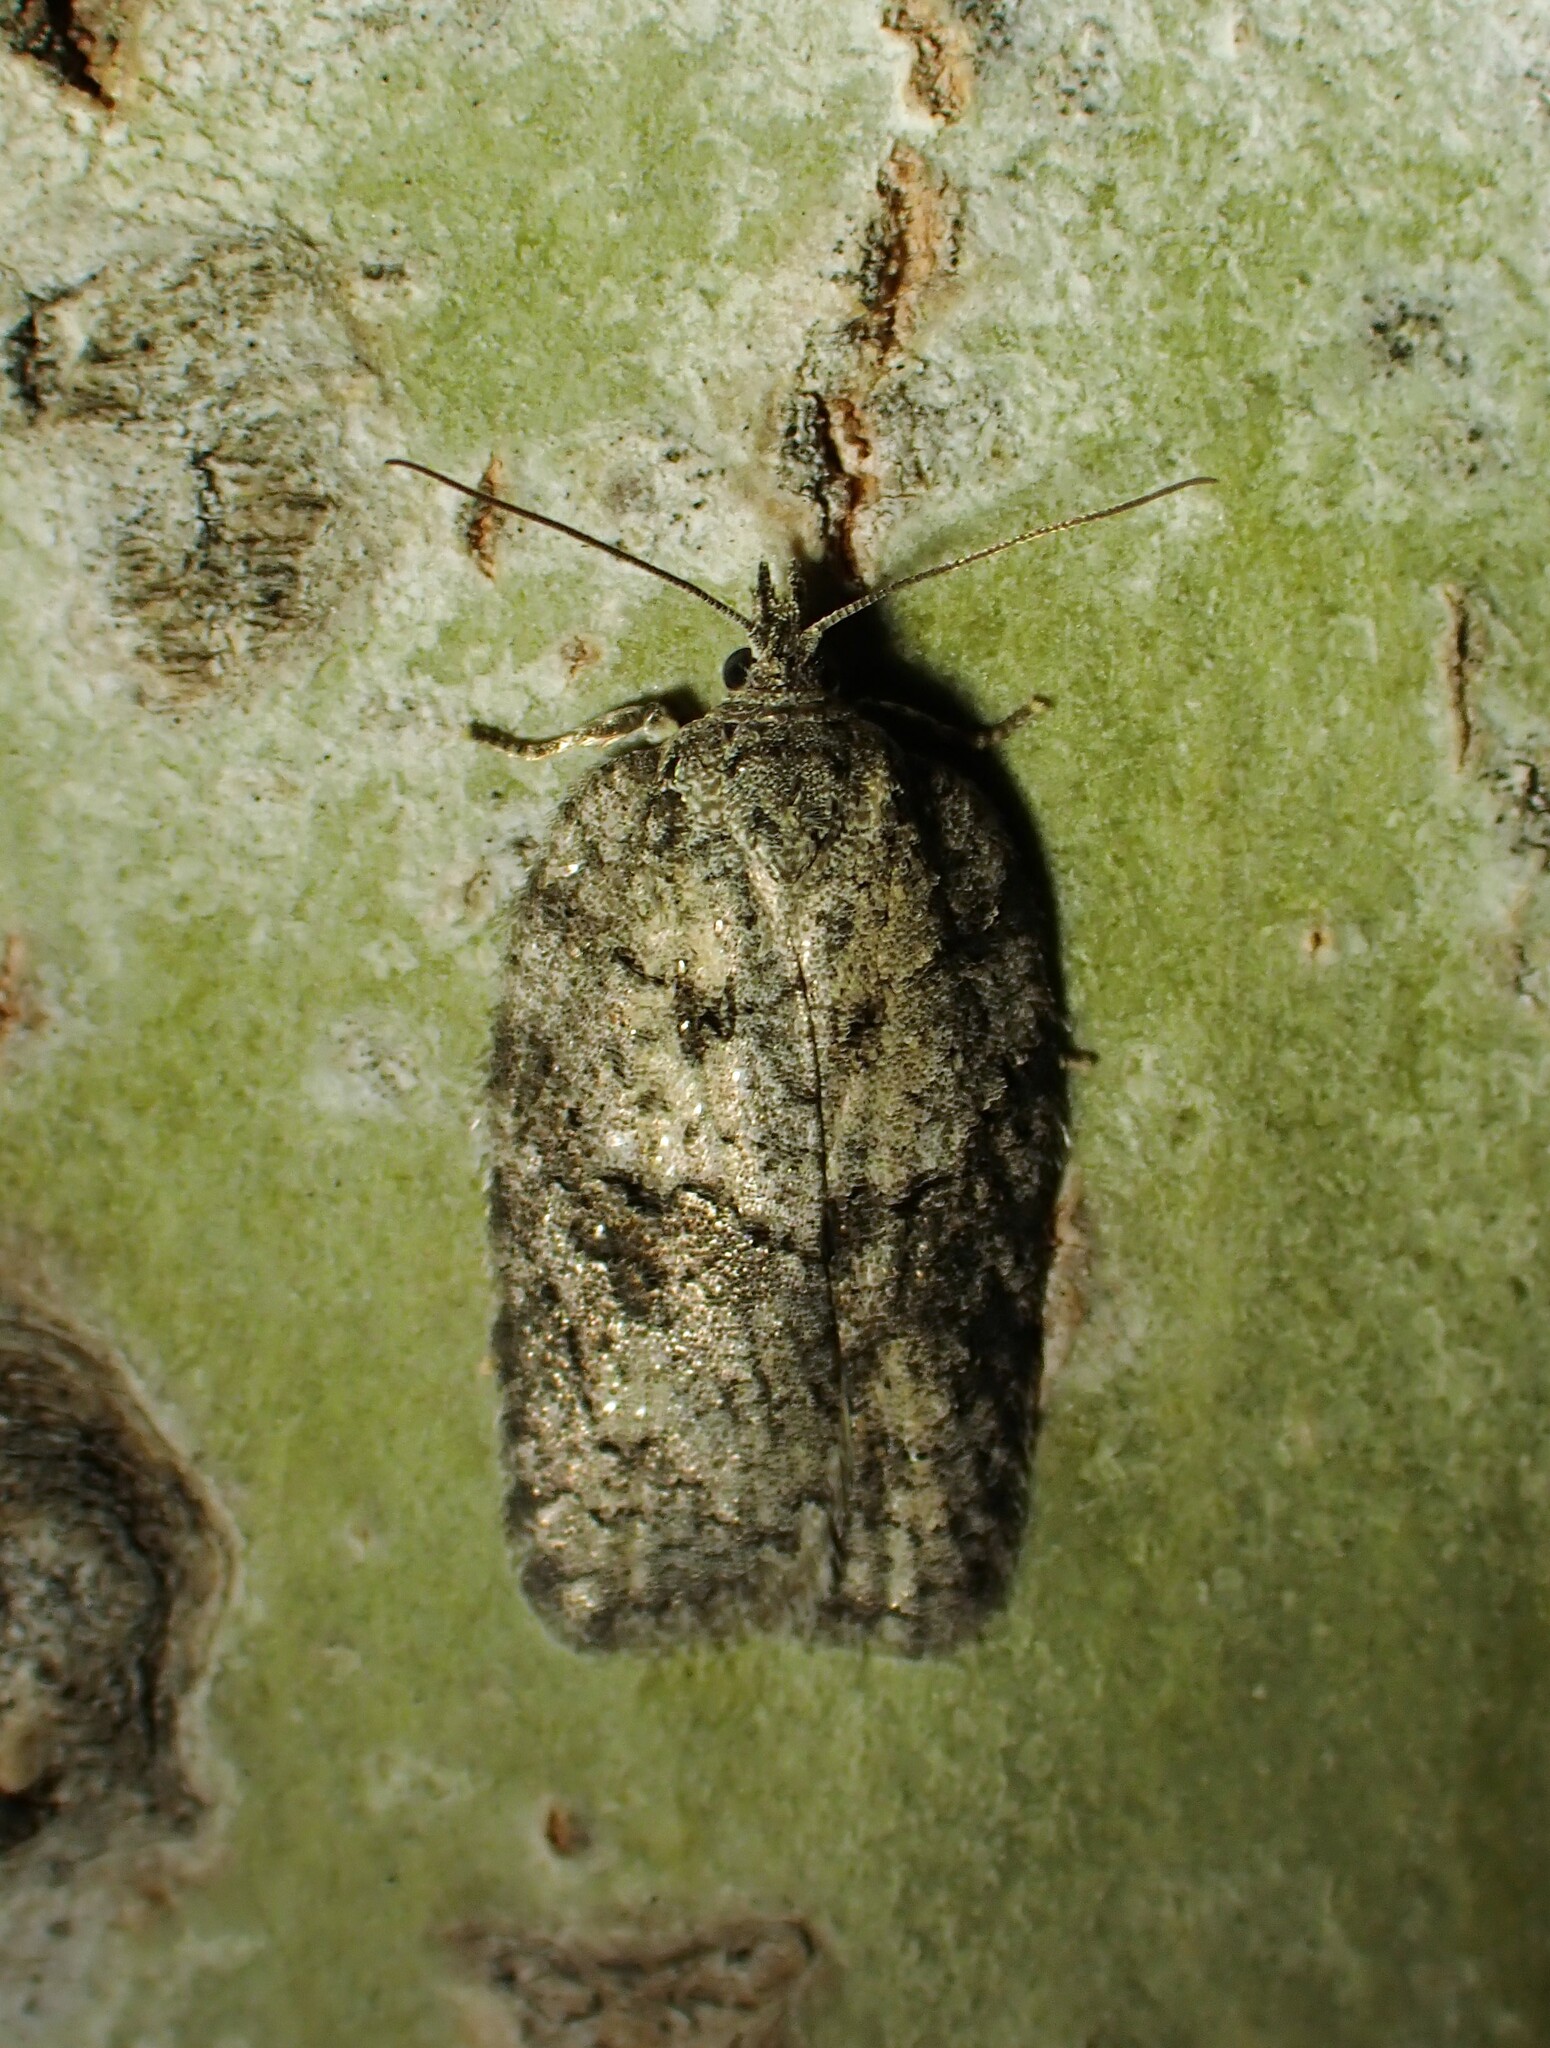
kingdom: Animalia
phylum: Arthropoda
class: Insecta
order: Lepidoptera
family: Tortricidae
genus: Acleris
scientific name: Acleris nigrolinea
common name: Black-lined acleris
